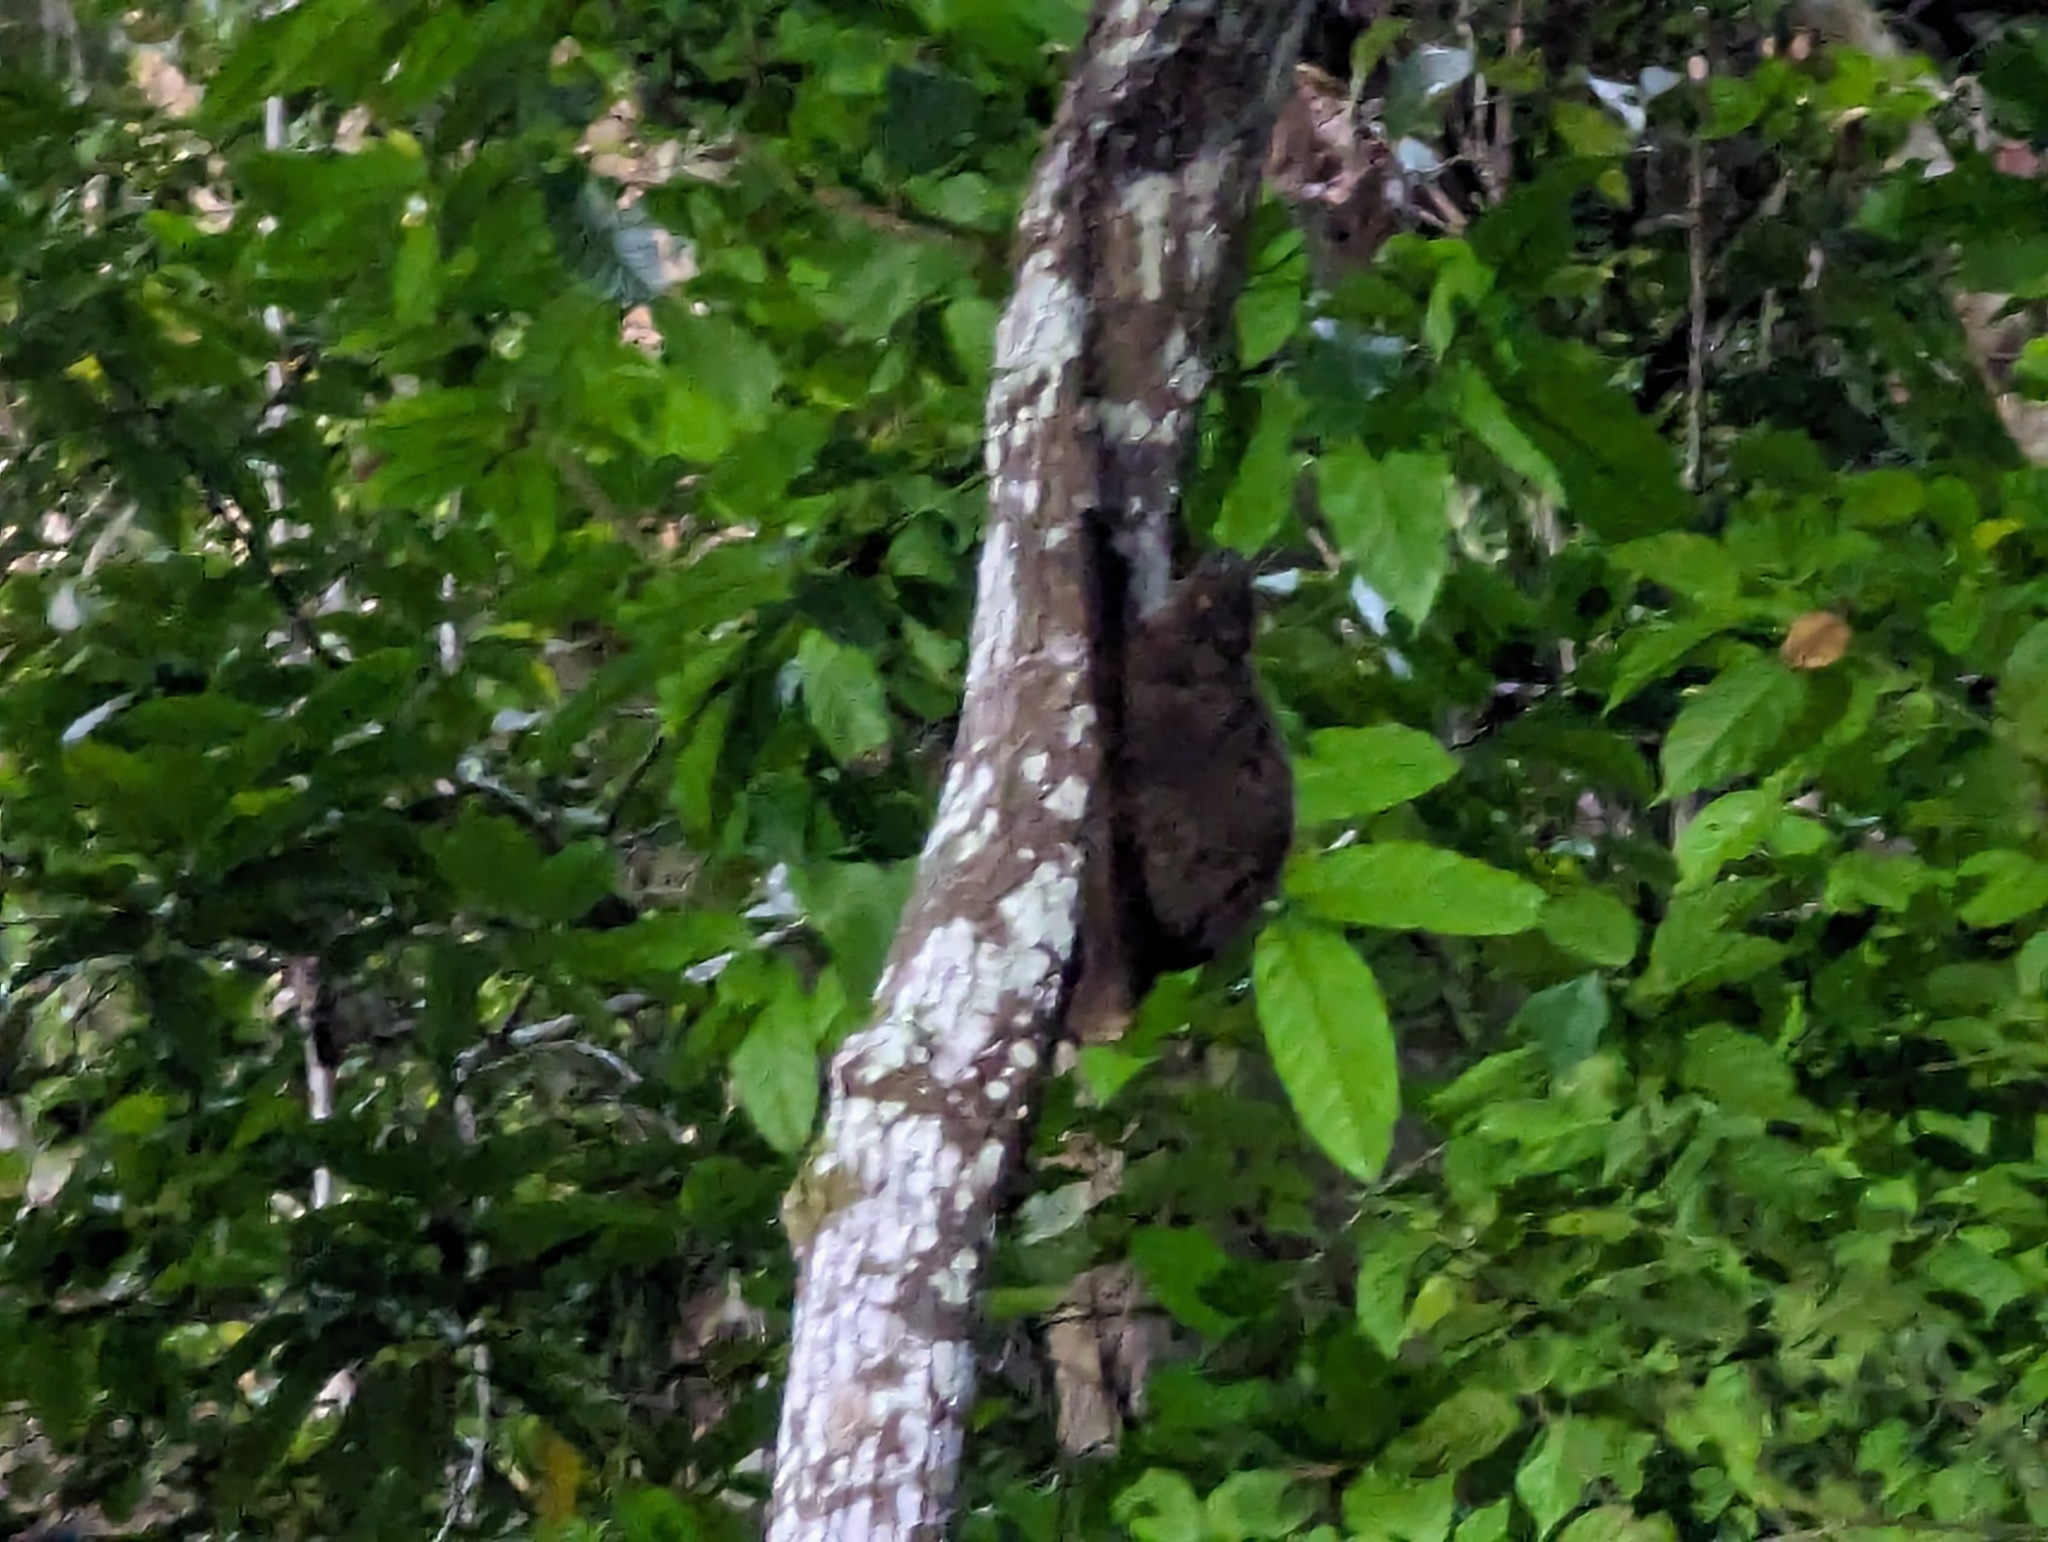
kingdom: Animalia
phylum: Chordata
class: Mammalia
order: Dermoptera
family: Cynocephalidae
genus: Cynocephalus
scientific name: Cynocephalus volans
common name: Philippine flying lemur
